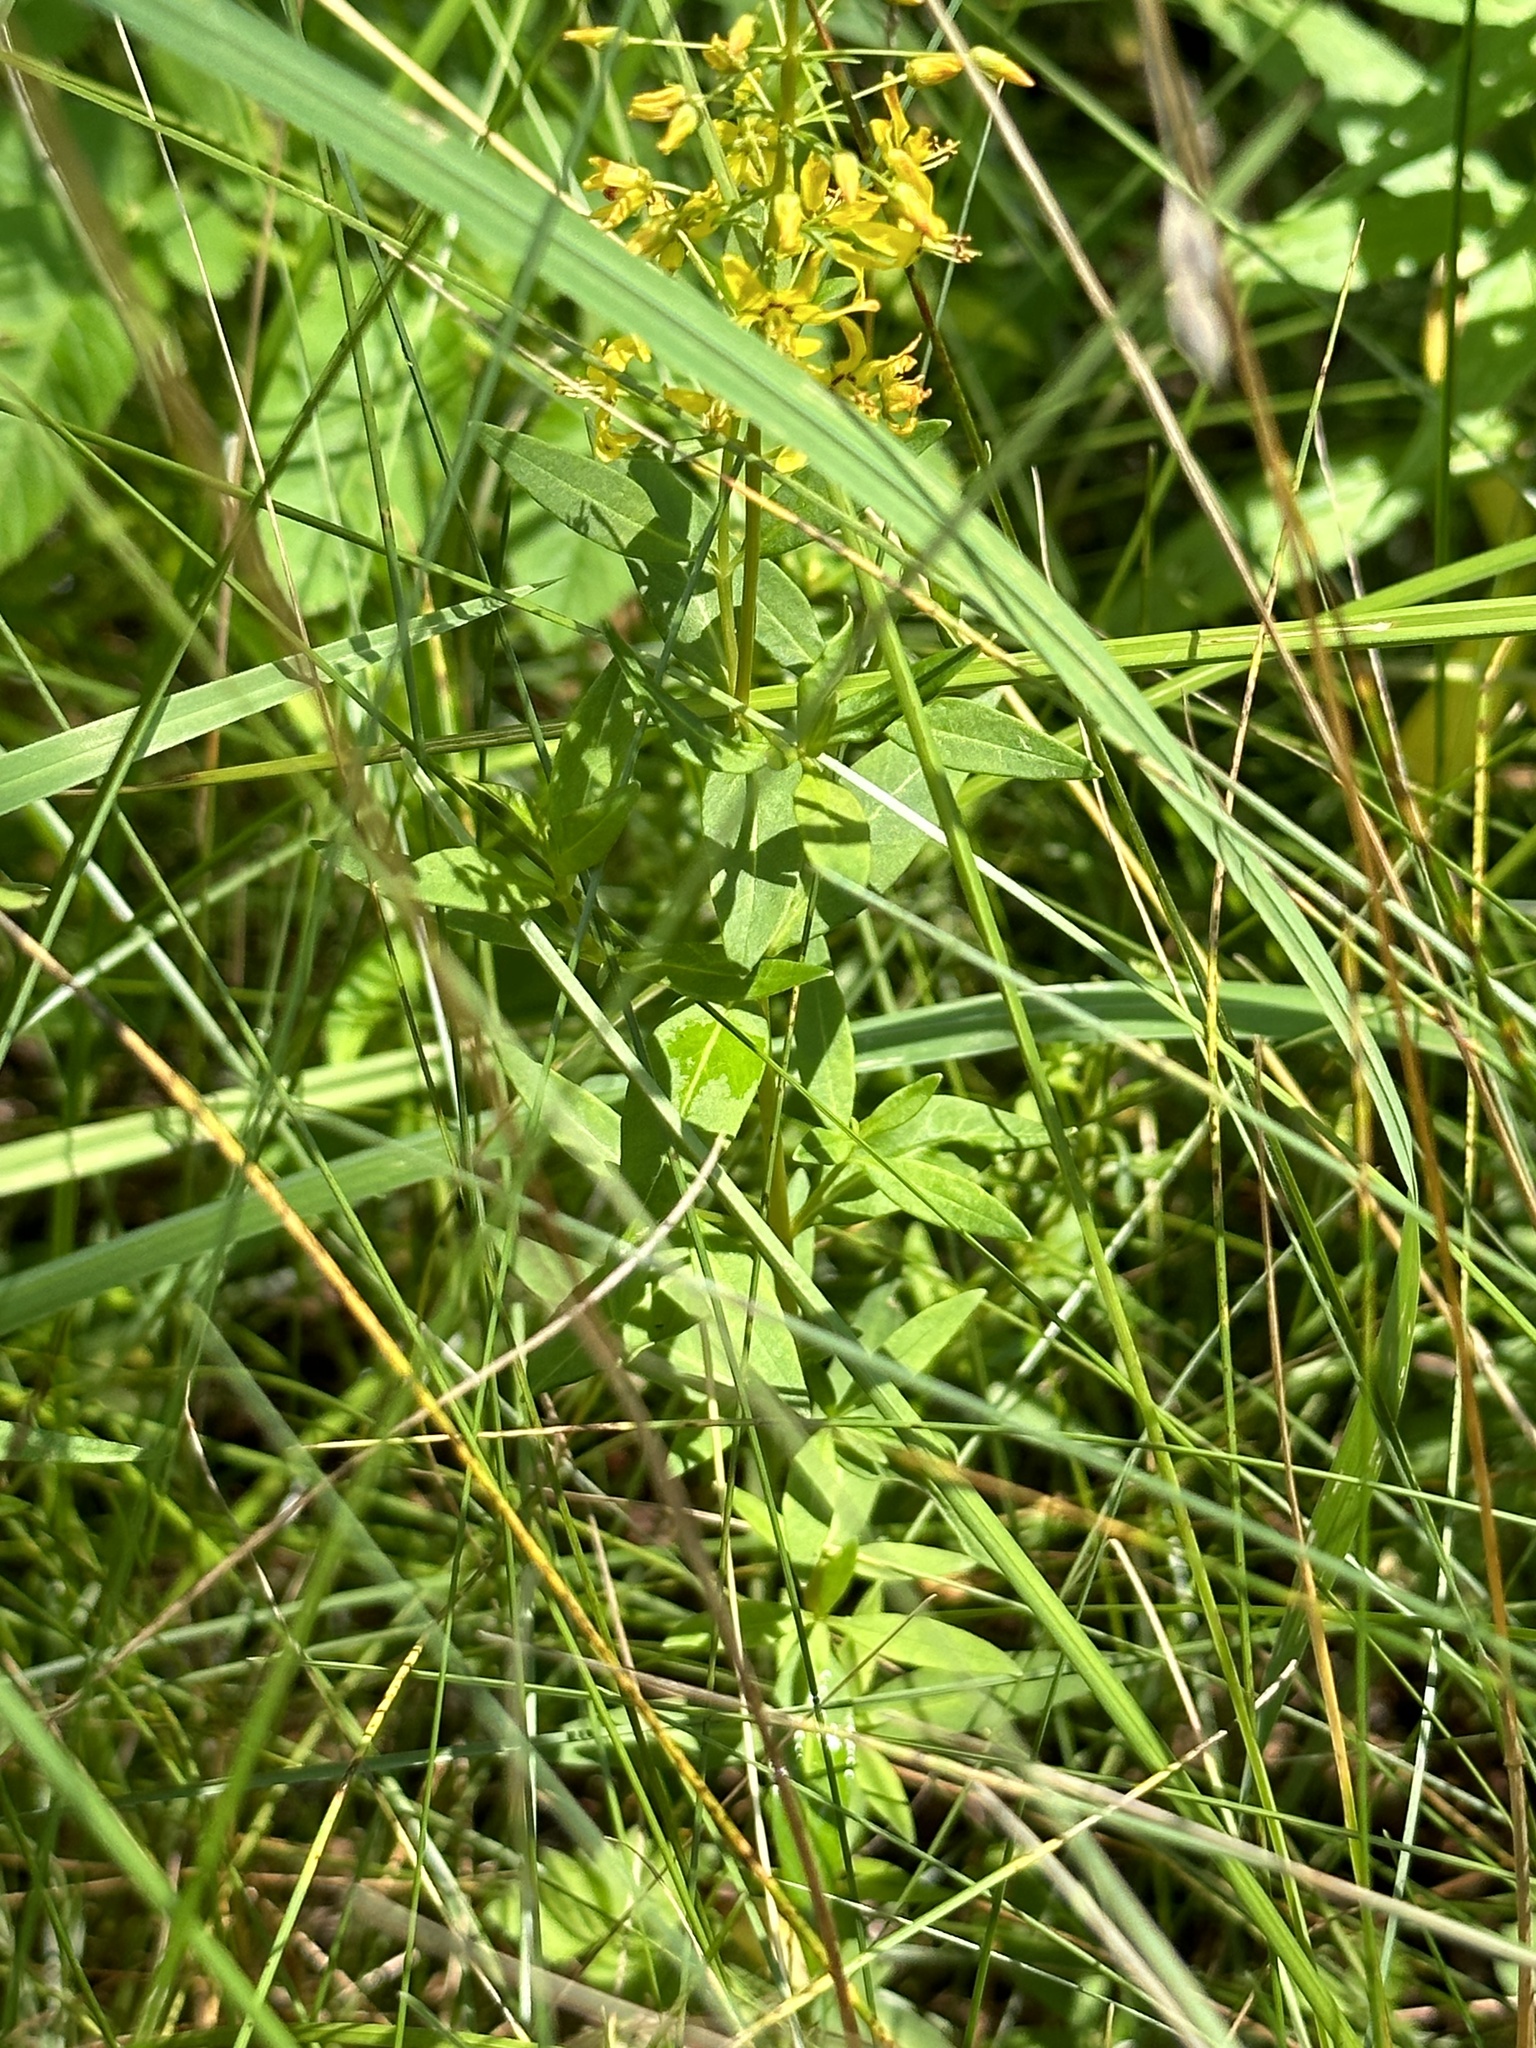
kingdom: Plantae
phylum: Tracheophyta
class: Magnoliopsida
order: Ericales
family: Primulaceae
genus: Lysimachia
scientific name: Lysimachia terrestris
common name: Lake loosestrife
